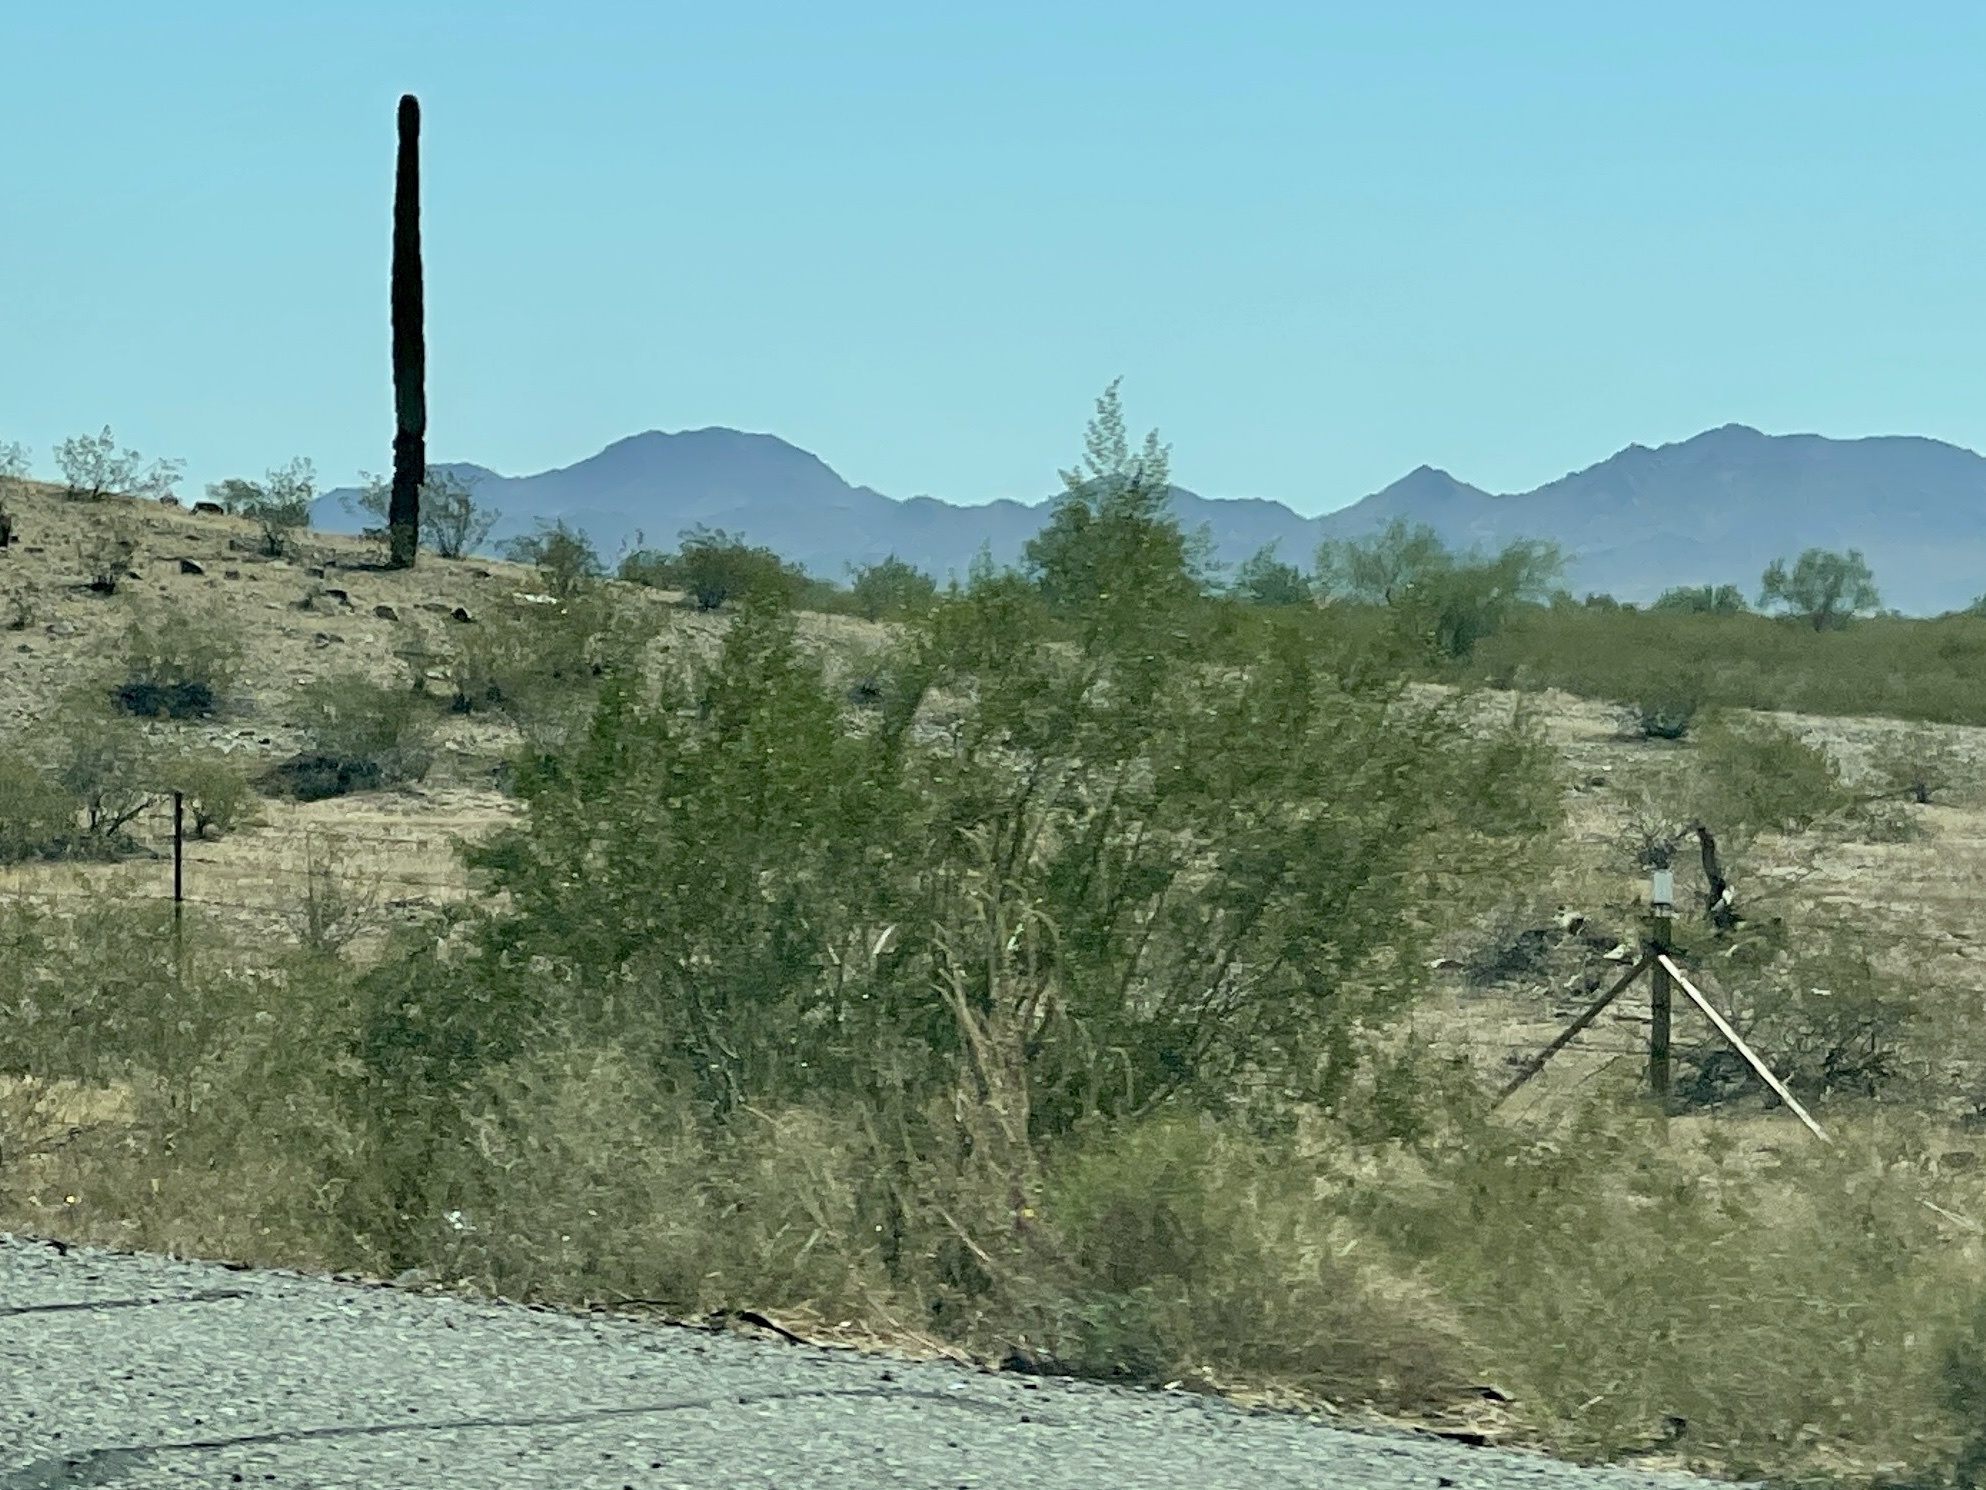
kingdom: Plantae
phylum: Tracheophyta
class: Magnoliopsida
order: Zygophyllales
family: Zygophyllaceae
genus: Larrea
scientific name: Larrea tridentata
